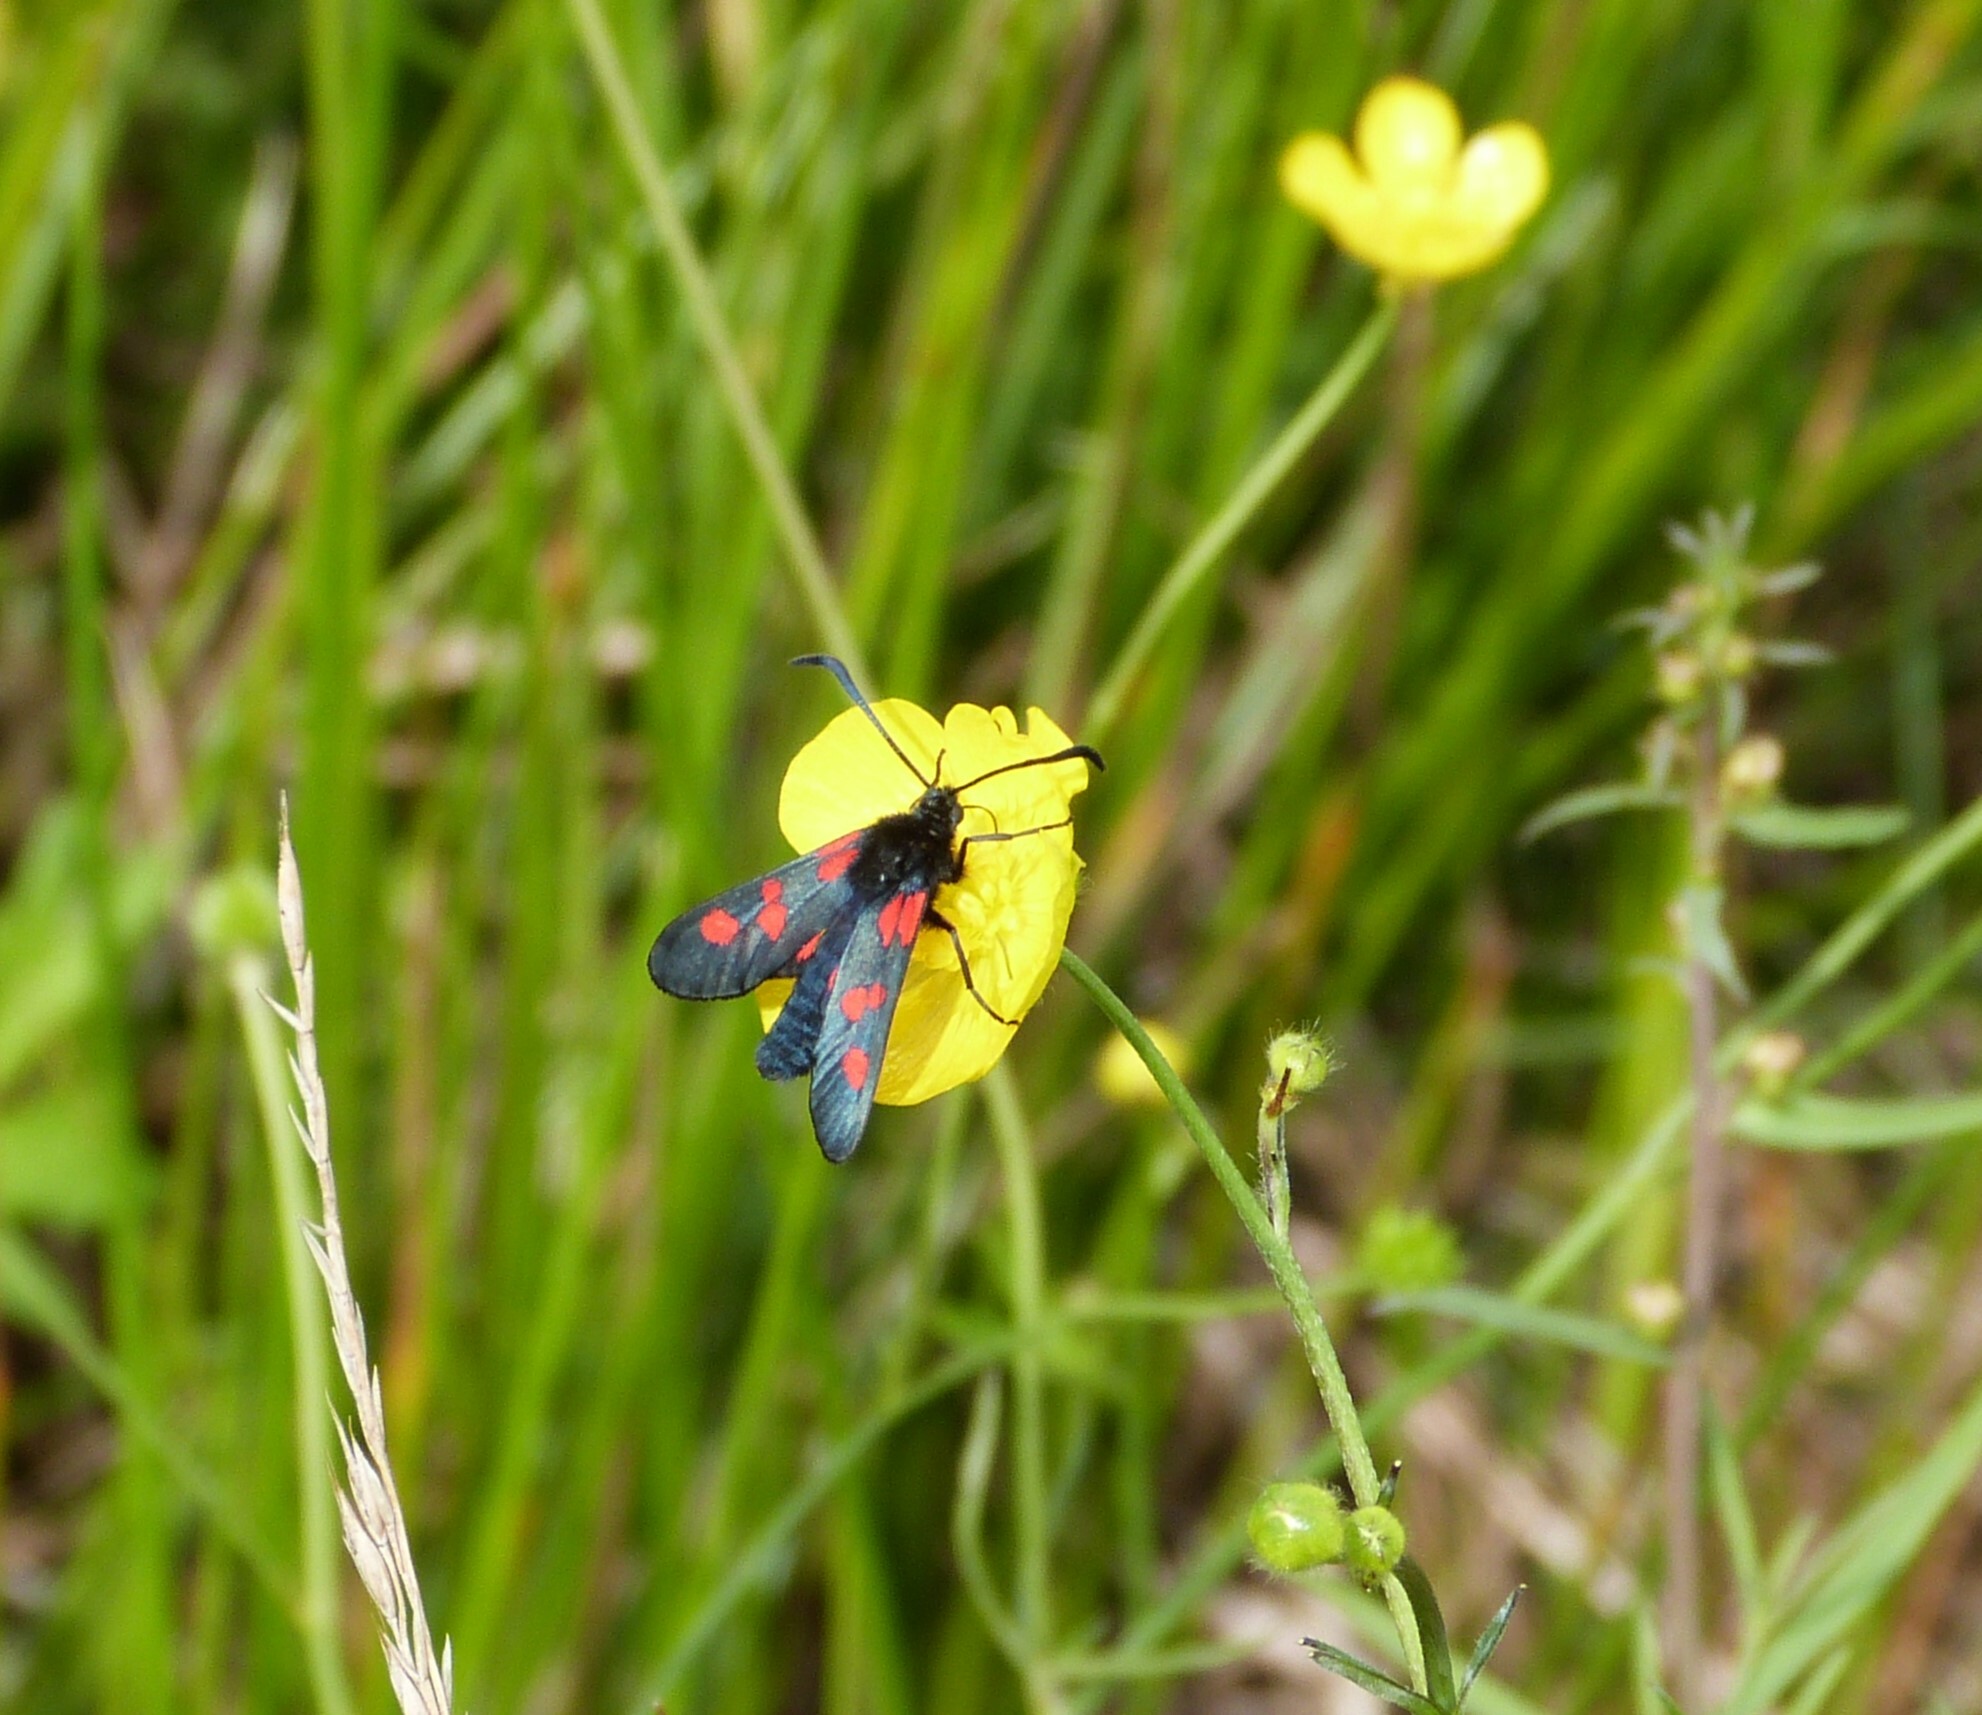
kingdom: Animalia
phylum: Arthropoda
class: Insecta
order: Lepidoptera
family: Zygaenidae
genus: Zygaena
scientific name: Zygaena trifolii
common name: Five-spot burnet
